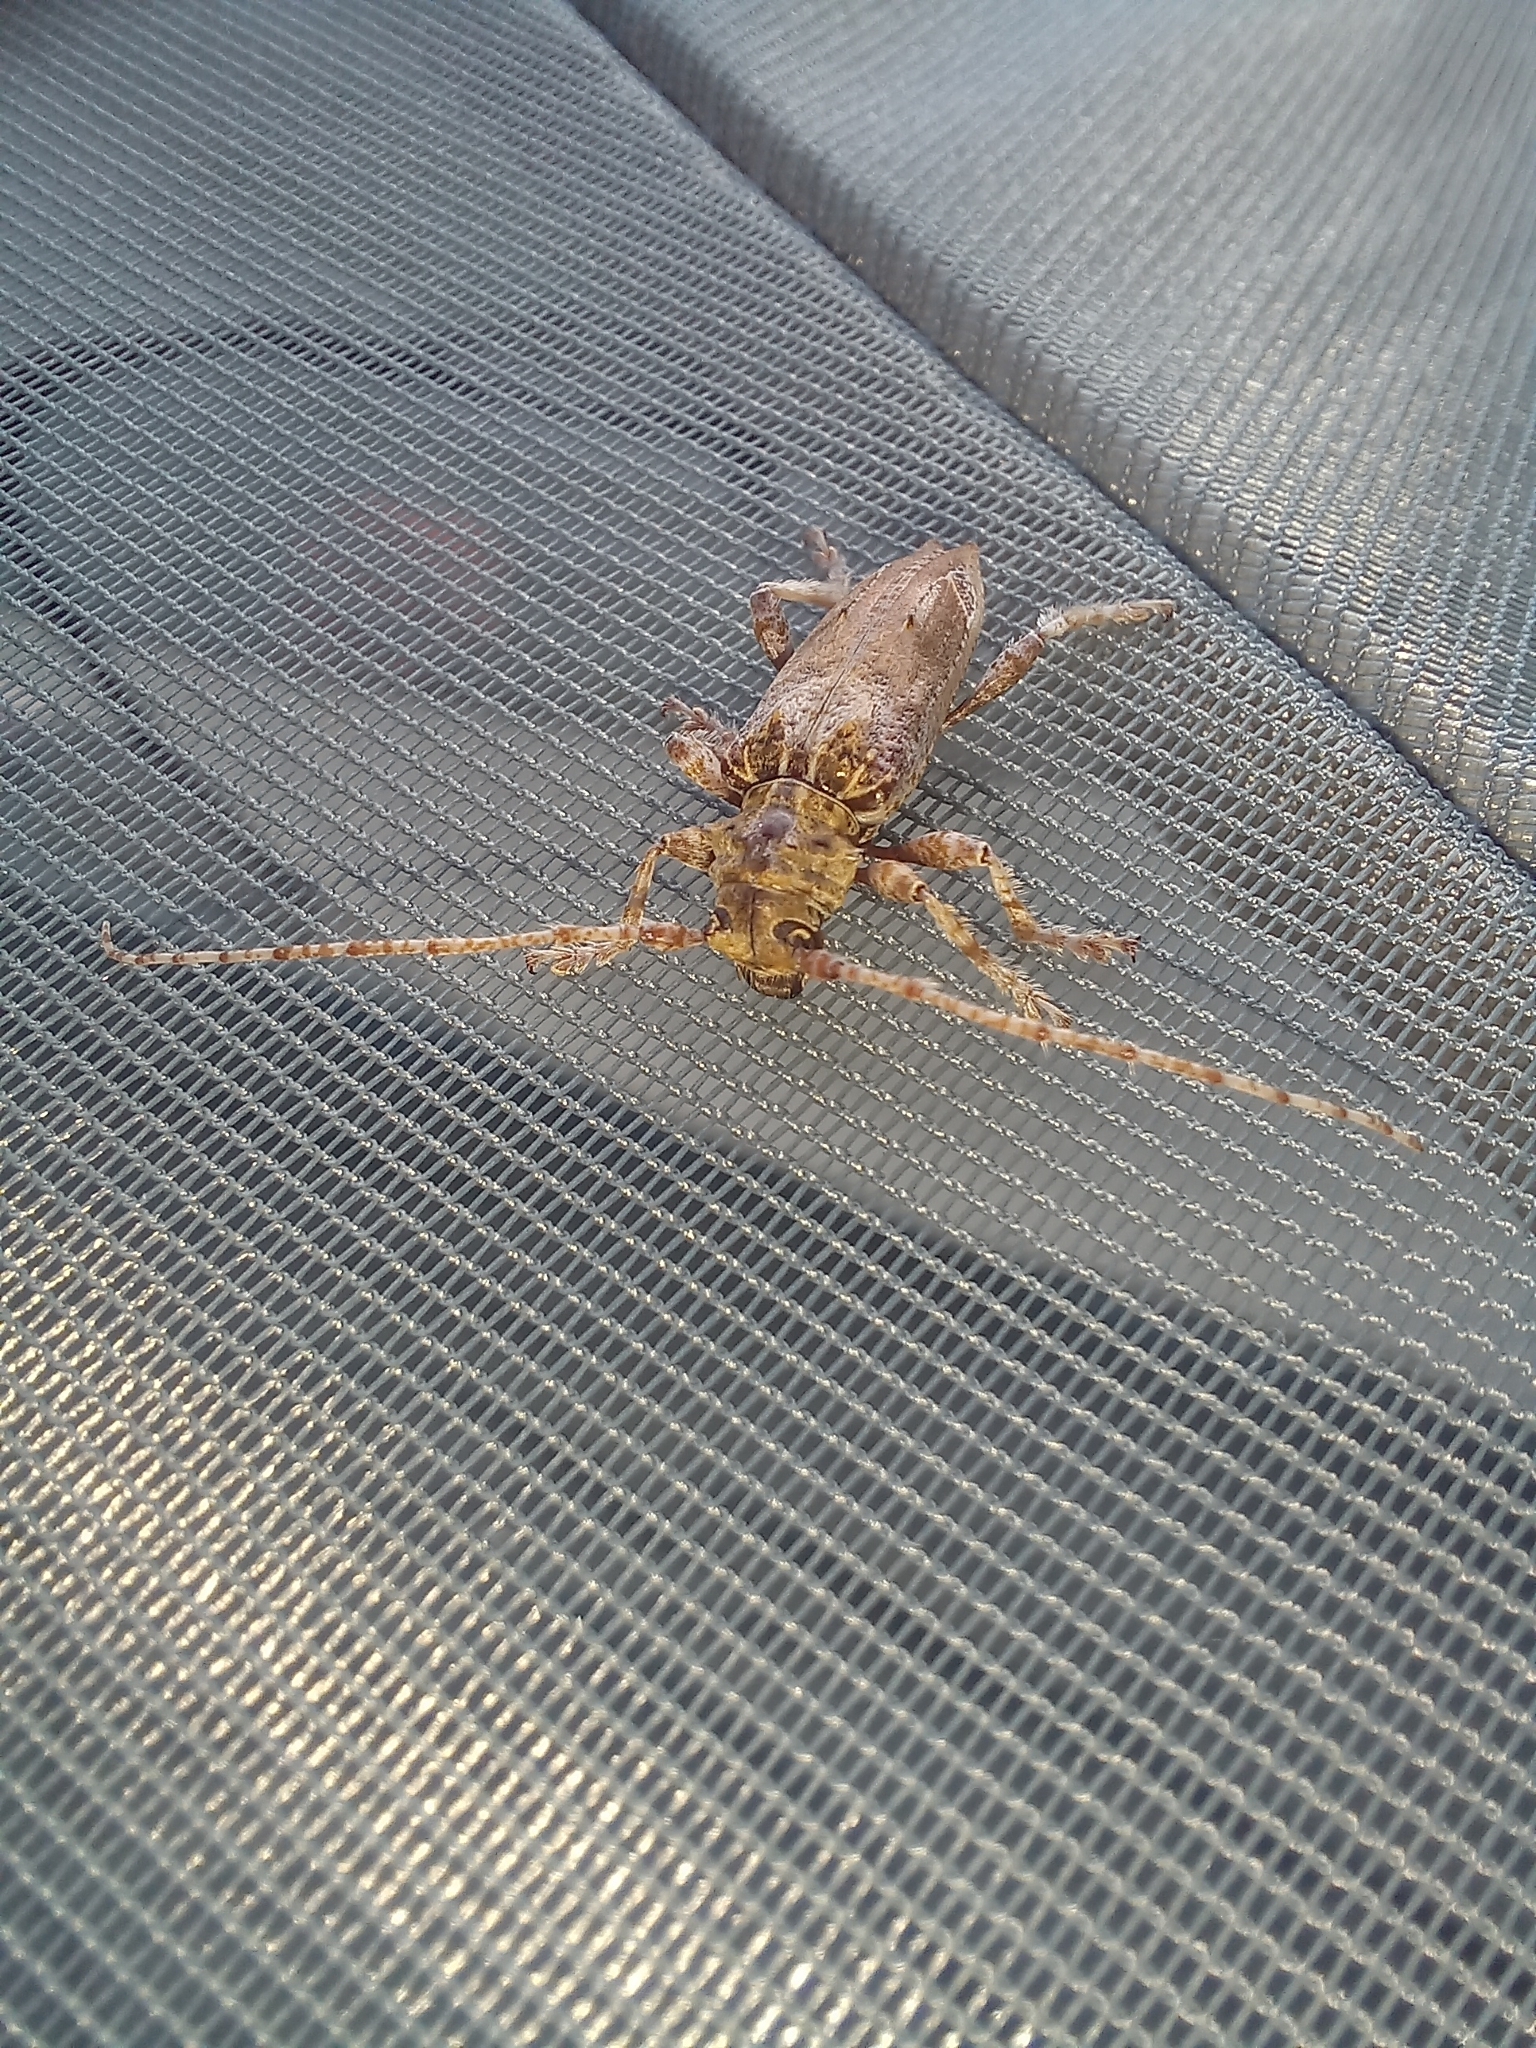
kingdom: Animalia
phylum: Arthropoda
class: Insecta
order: Coleoptera
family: Cerambycidae
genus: Tetrorea
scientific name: Tetrorea cilipes
